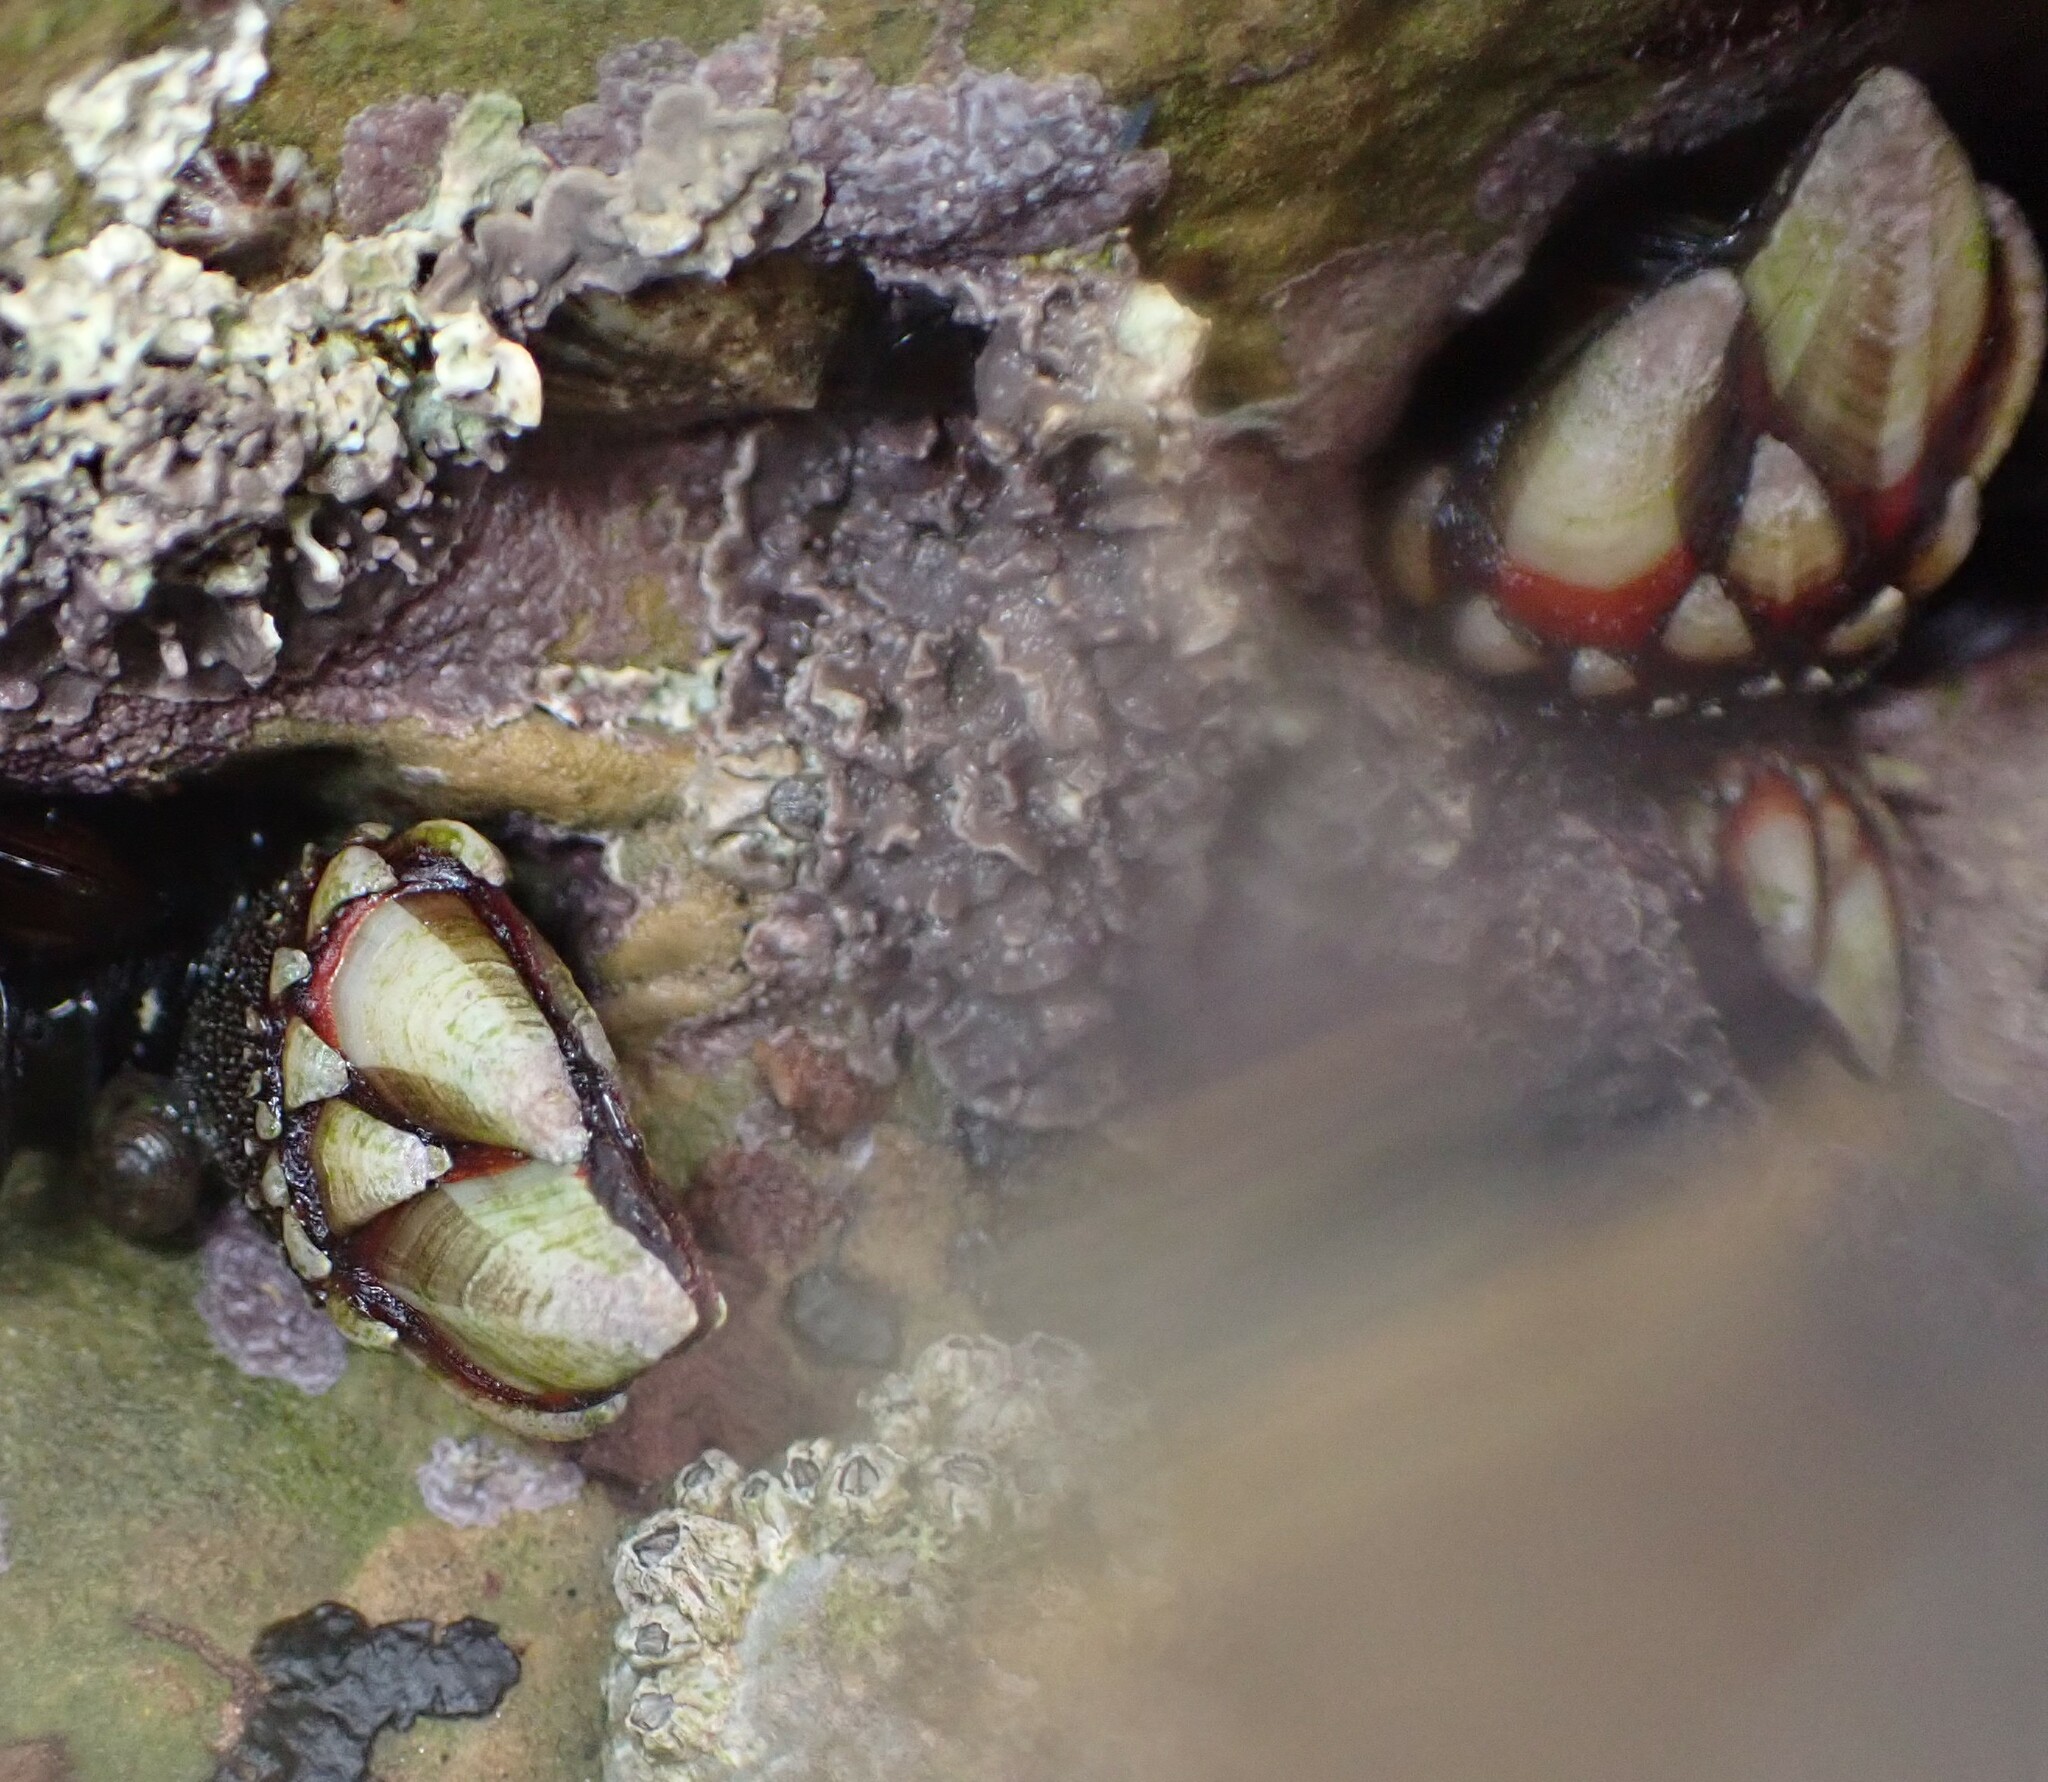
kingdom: Animalia
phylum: Arthropoda
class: Maxillopoda
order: Pedunculata
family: Pollicipedidae
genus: Pollicipes
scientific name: Pollicipes pollicipes
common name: Gooseneck barnacle
